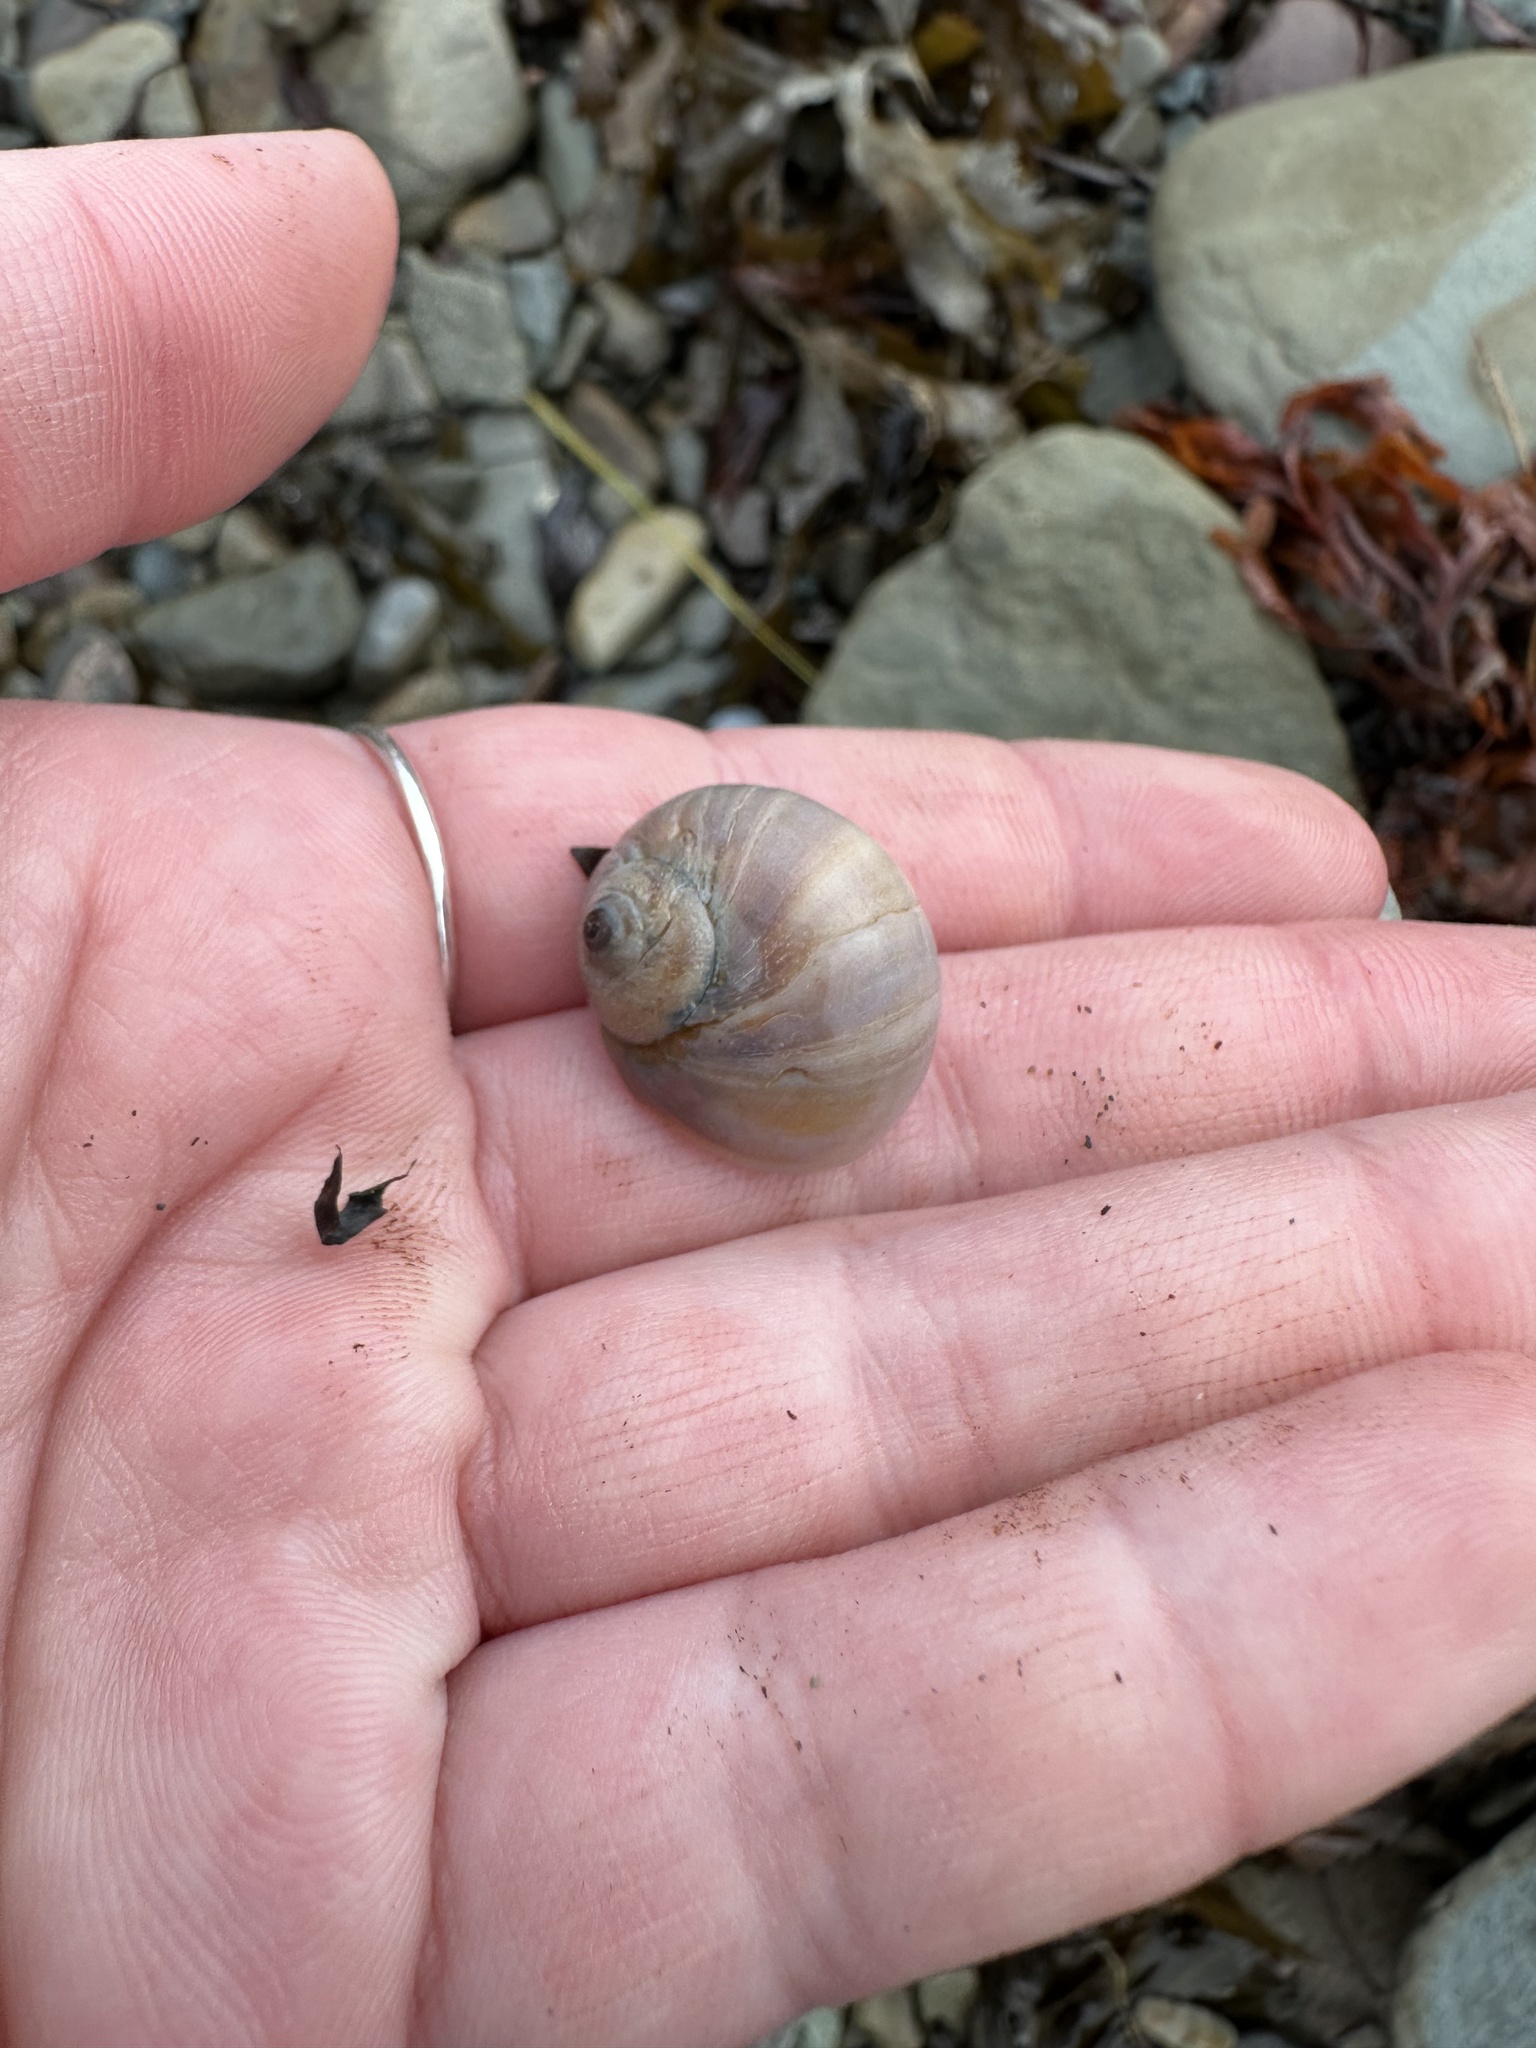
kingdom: Animalia
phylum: Mollusca
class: Gastropoda
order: Littorinimorpha
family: Naticidae
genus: Euspira
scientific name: Euspira heros
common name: Common northern moonsnail
